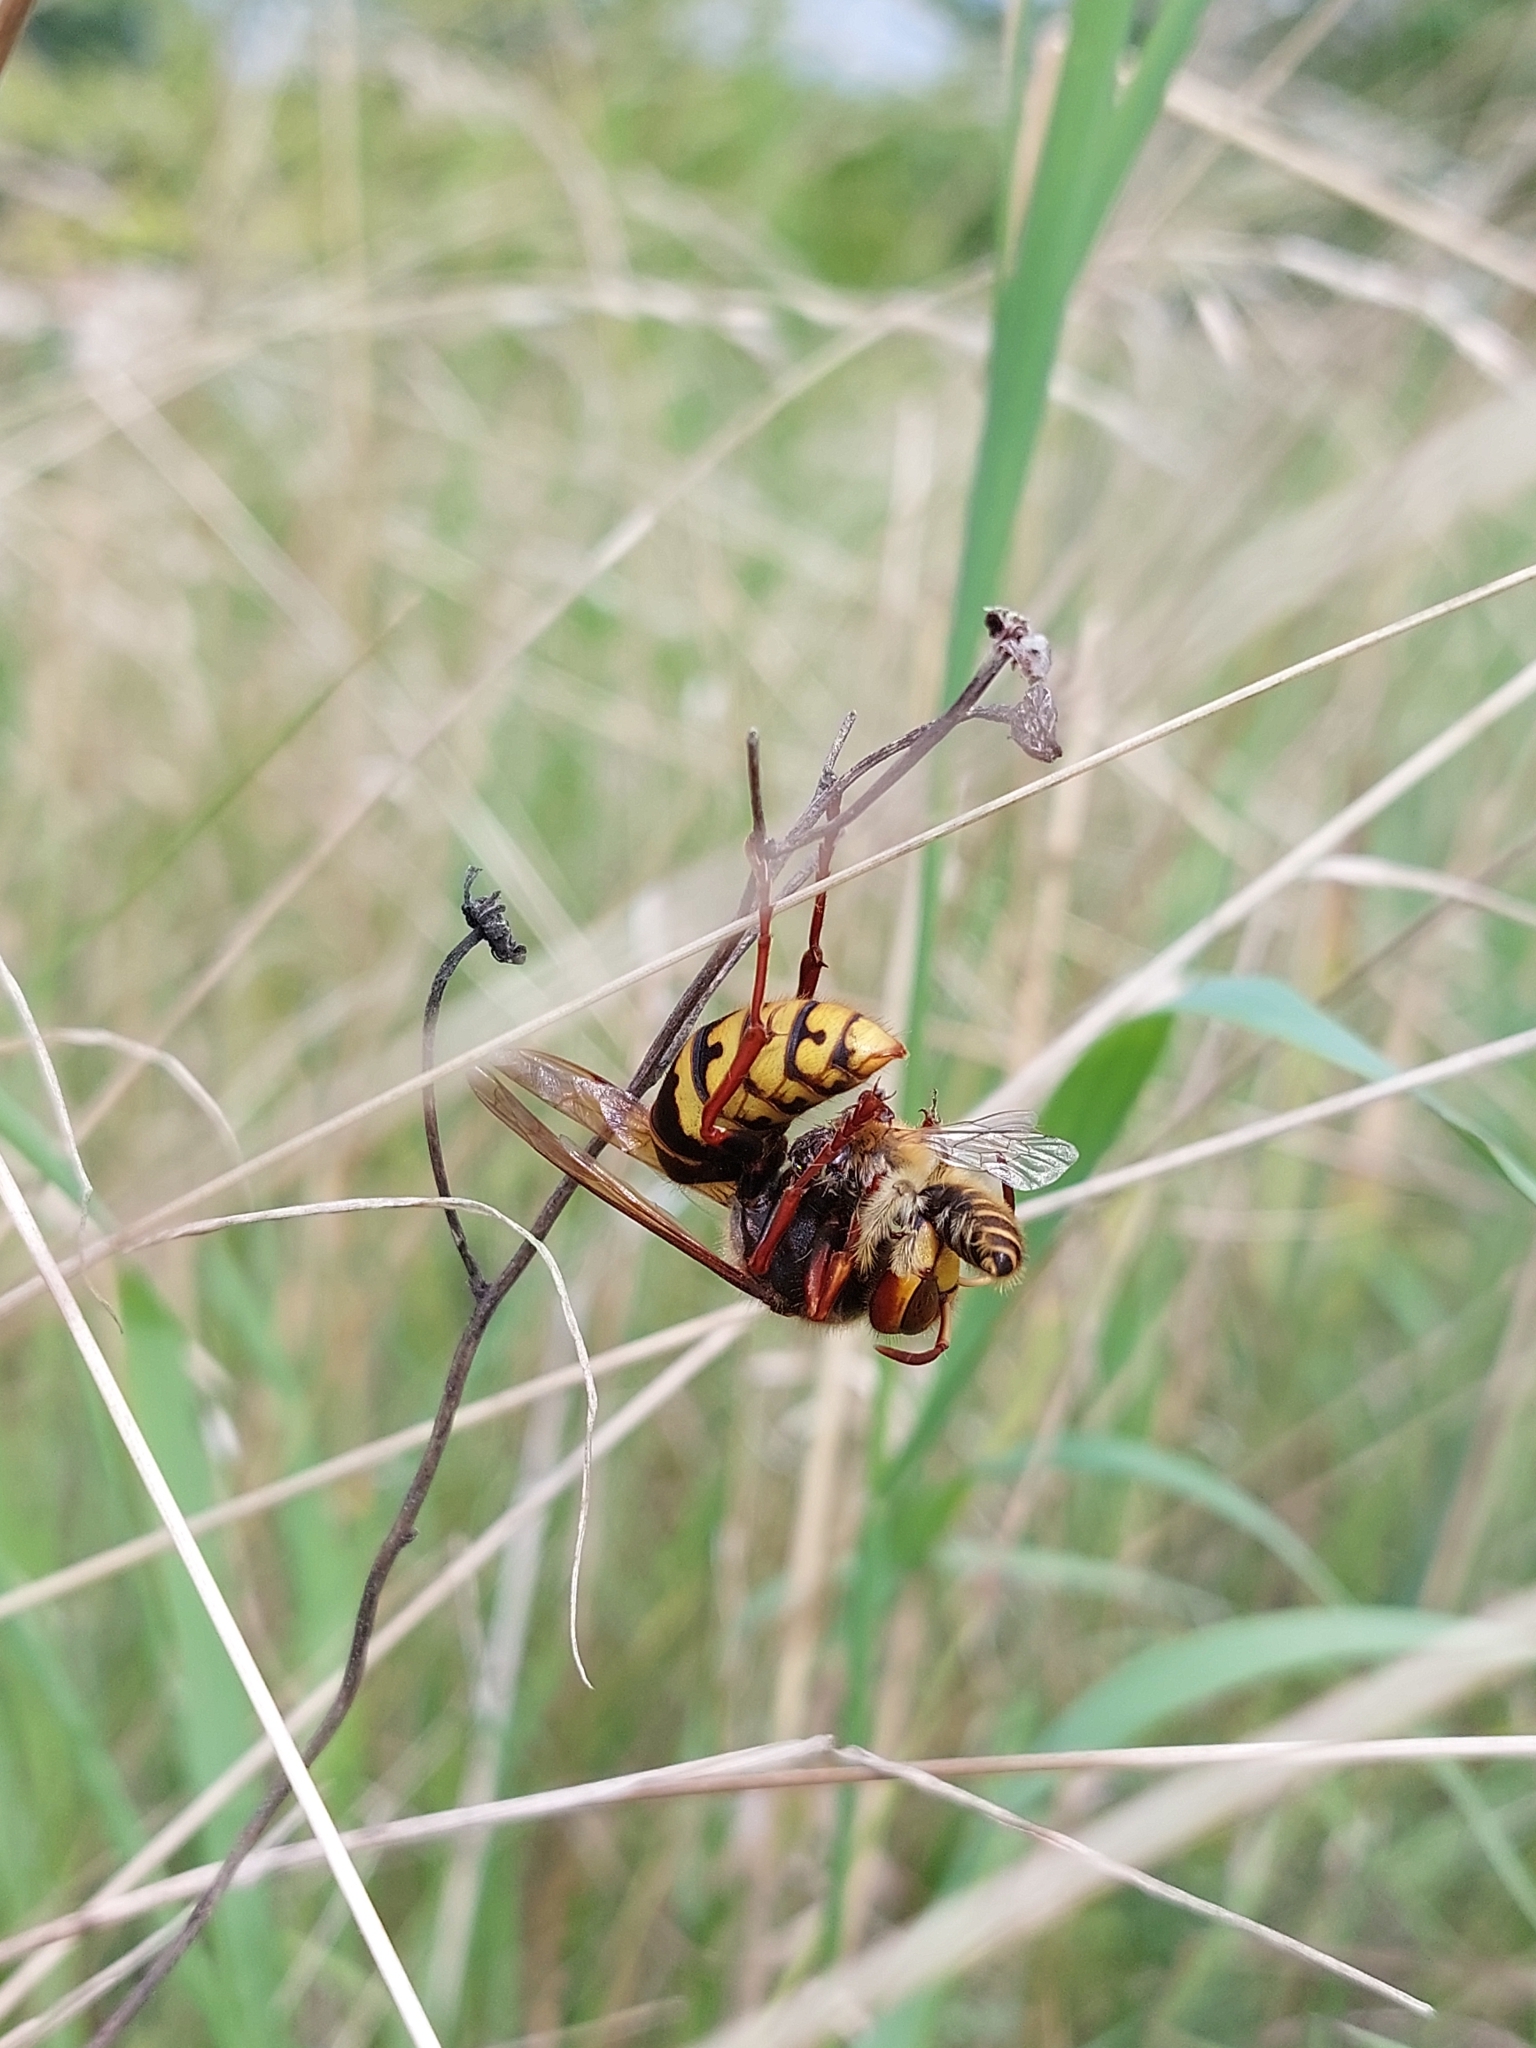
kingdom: Animalia
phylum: Arthropoda
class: Insecta
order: Hymenoptera
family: Vespidae
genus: Vespa
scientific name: Vespa crabro
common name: Hornet
